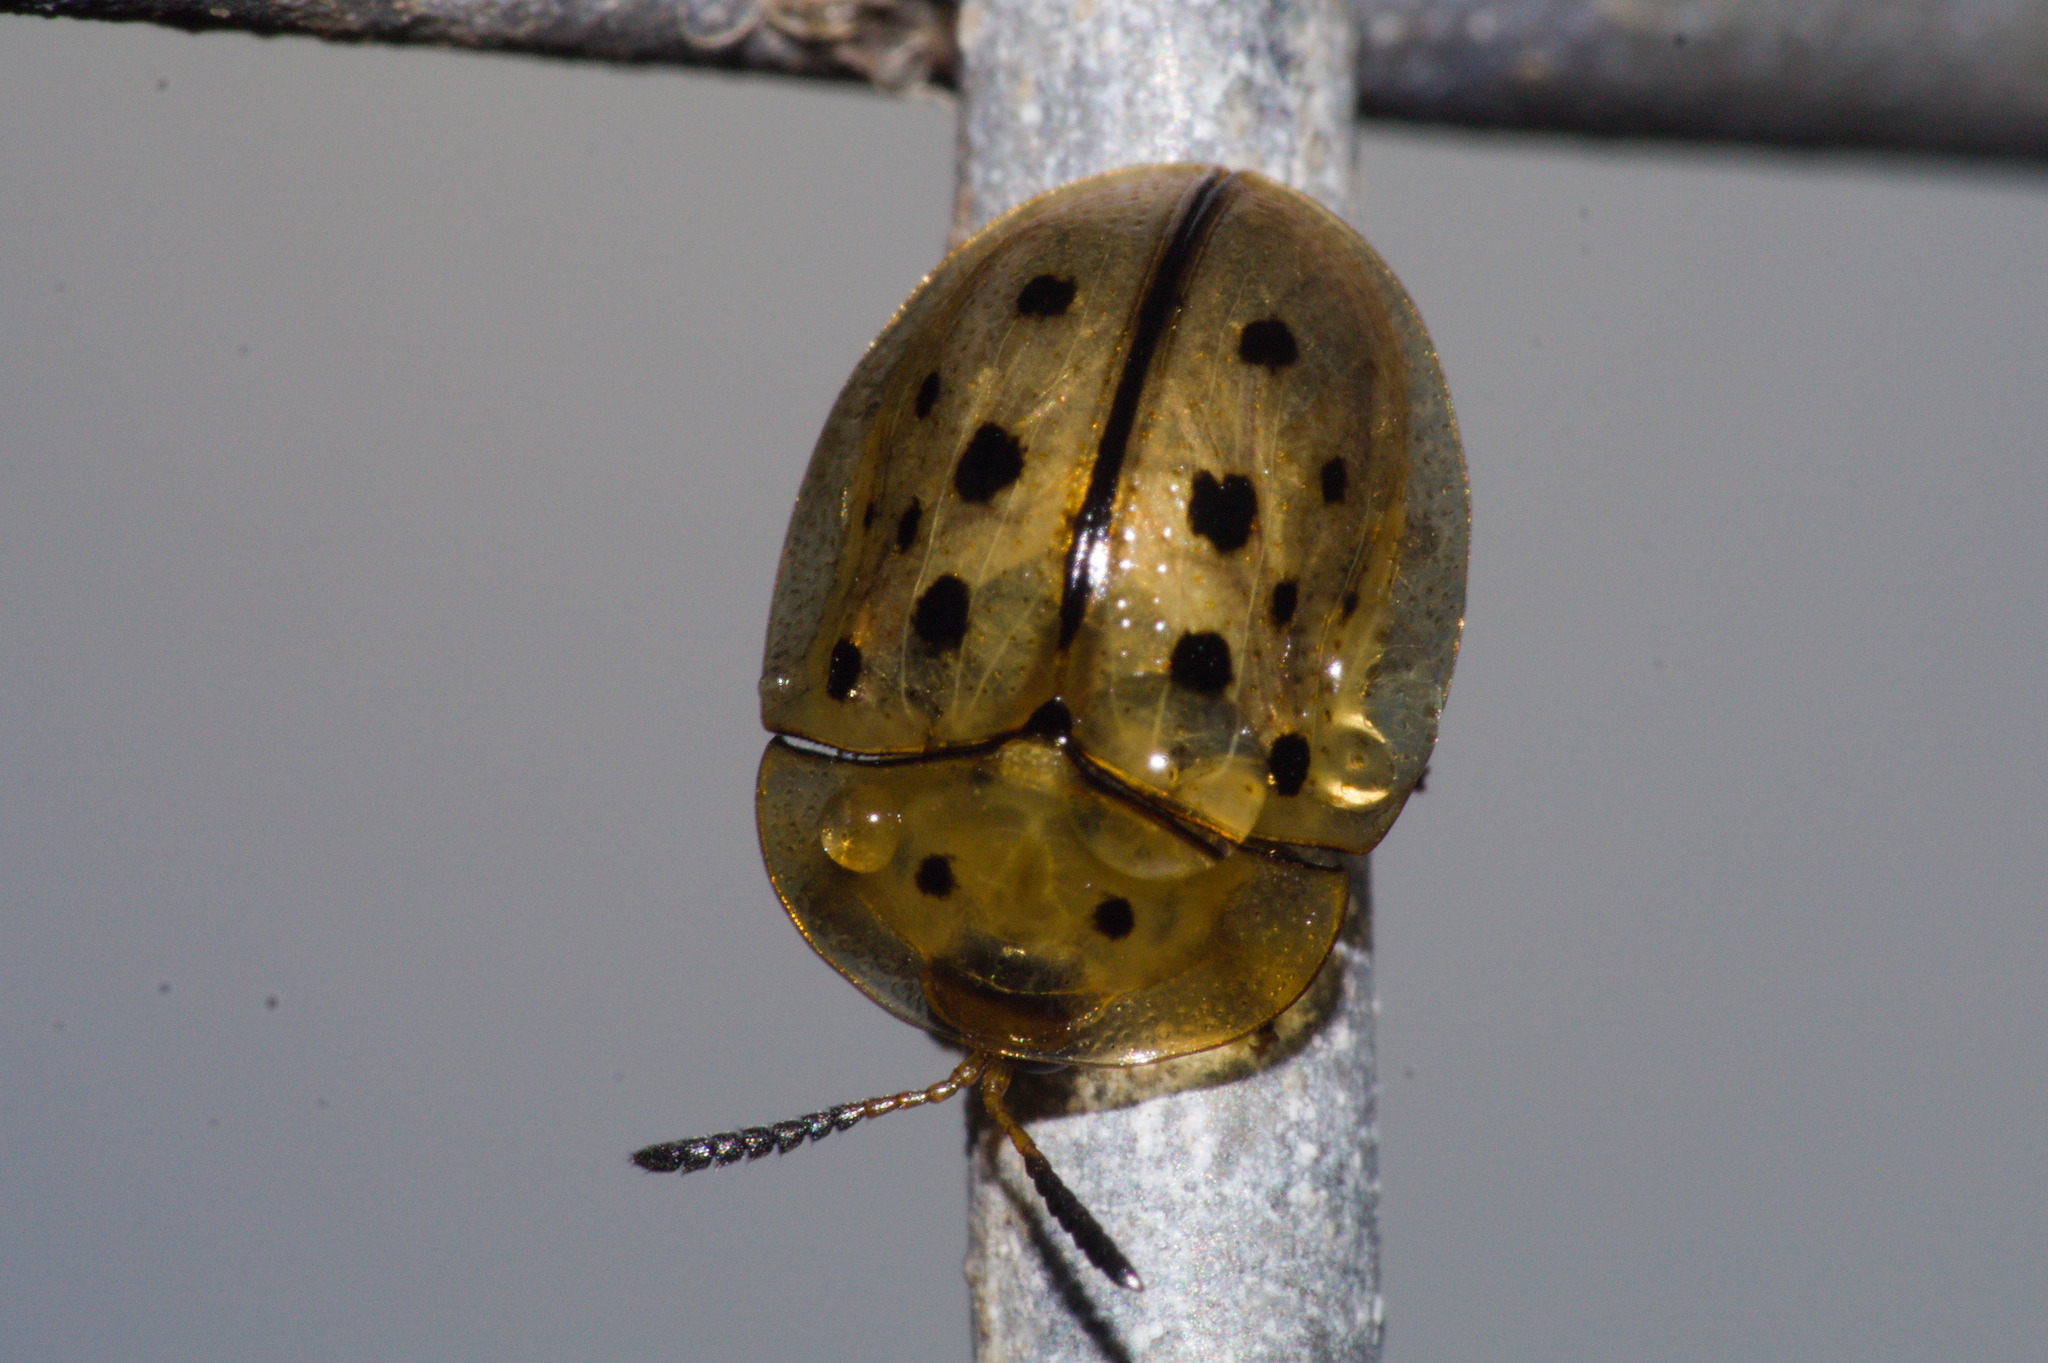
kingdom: Animalia
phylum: Arthropoda
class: Insecta
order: Coleoptera
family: Chrysomelidae
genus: Cistudinella
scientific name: Cistudinella notata
